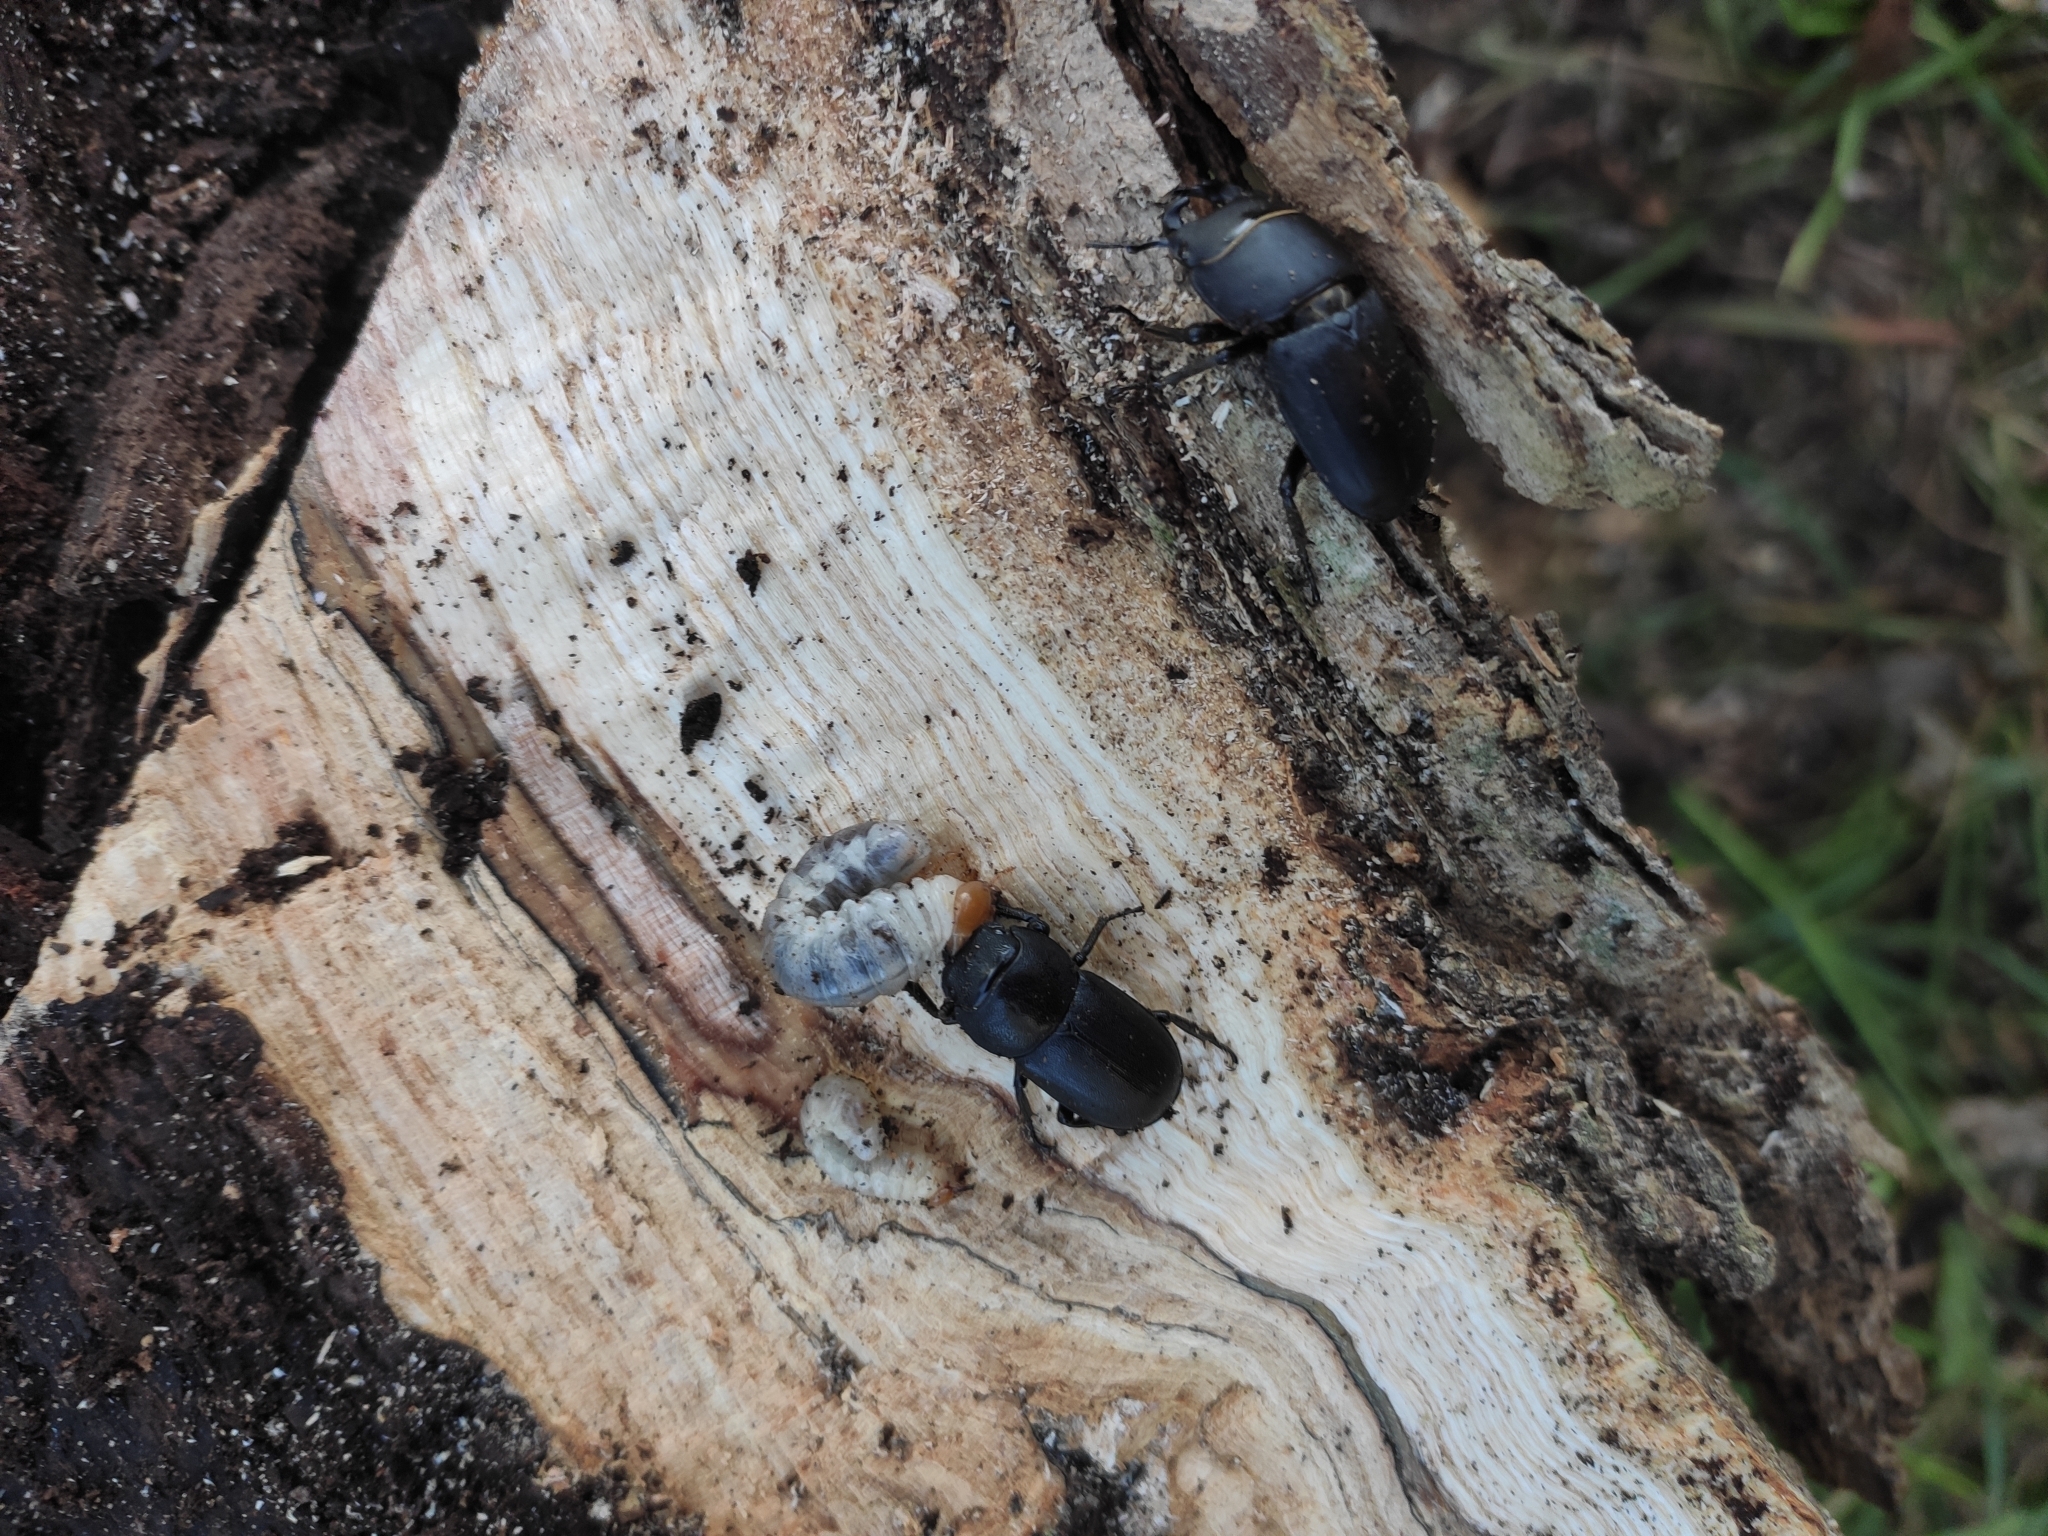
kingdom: Animalia
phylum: Arthropoda
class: Insecta
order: Coleoptera
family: Lucanidae
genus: Dorcus
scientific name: Dorcus parallelipipedus
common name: Lesser stag beetle
